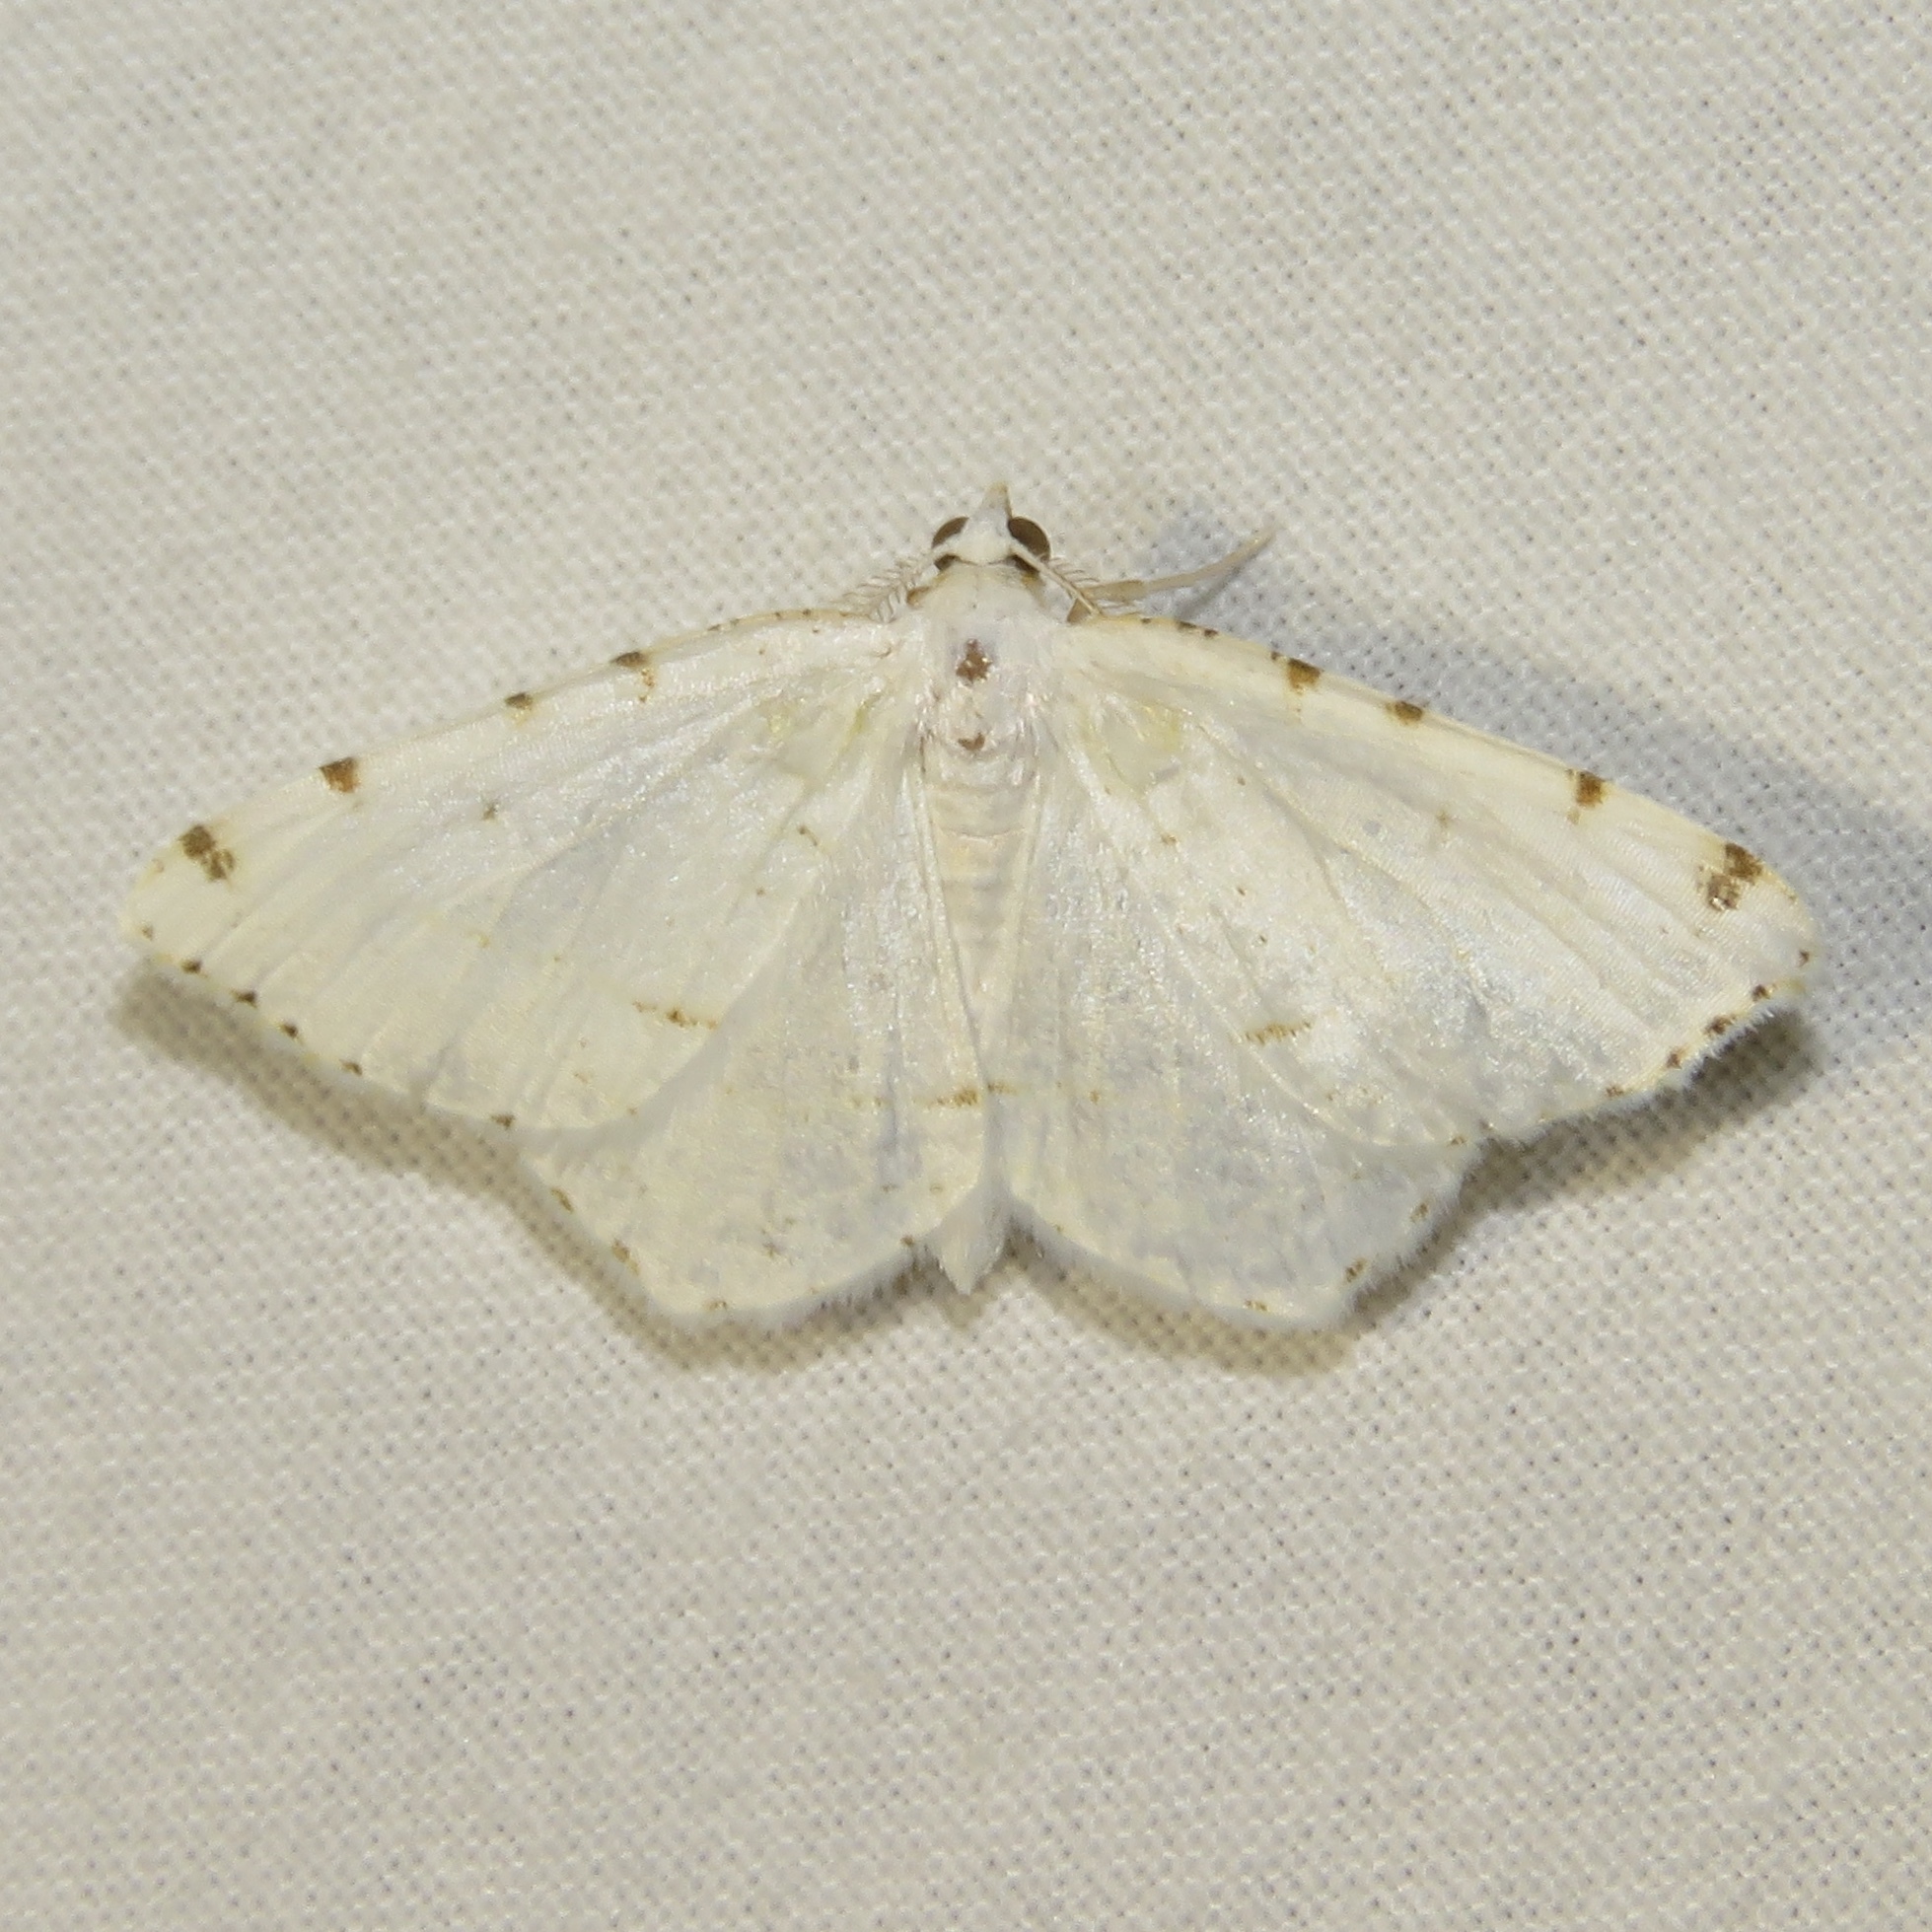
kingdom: Animalia
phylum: Arthropoda
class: Insecta
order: Lepidoptera
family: Geometridae
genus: Macaria
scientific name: Macaria pustularia
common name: Lesser maple spanworm moth
